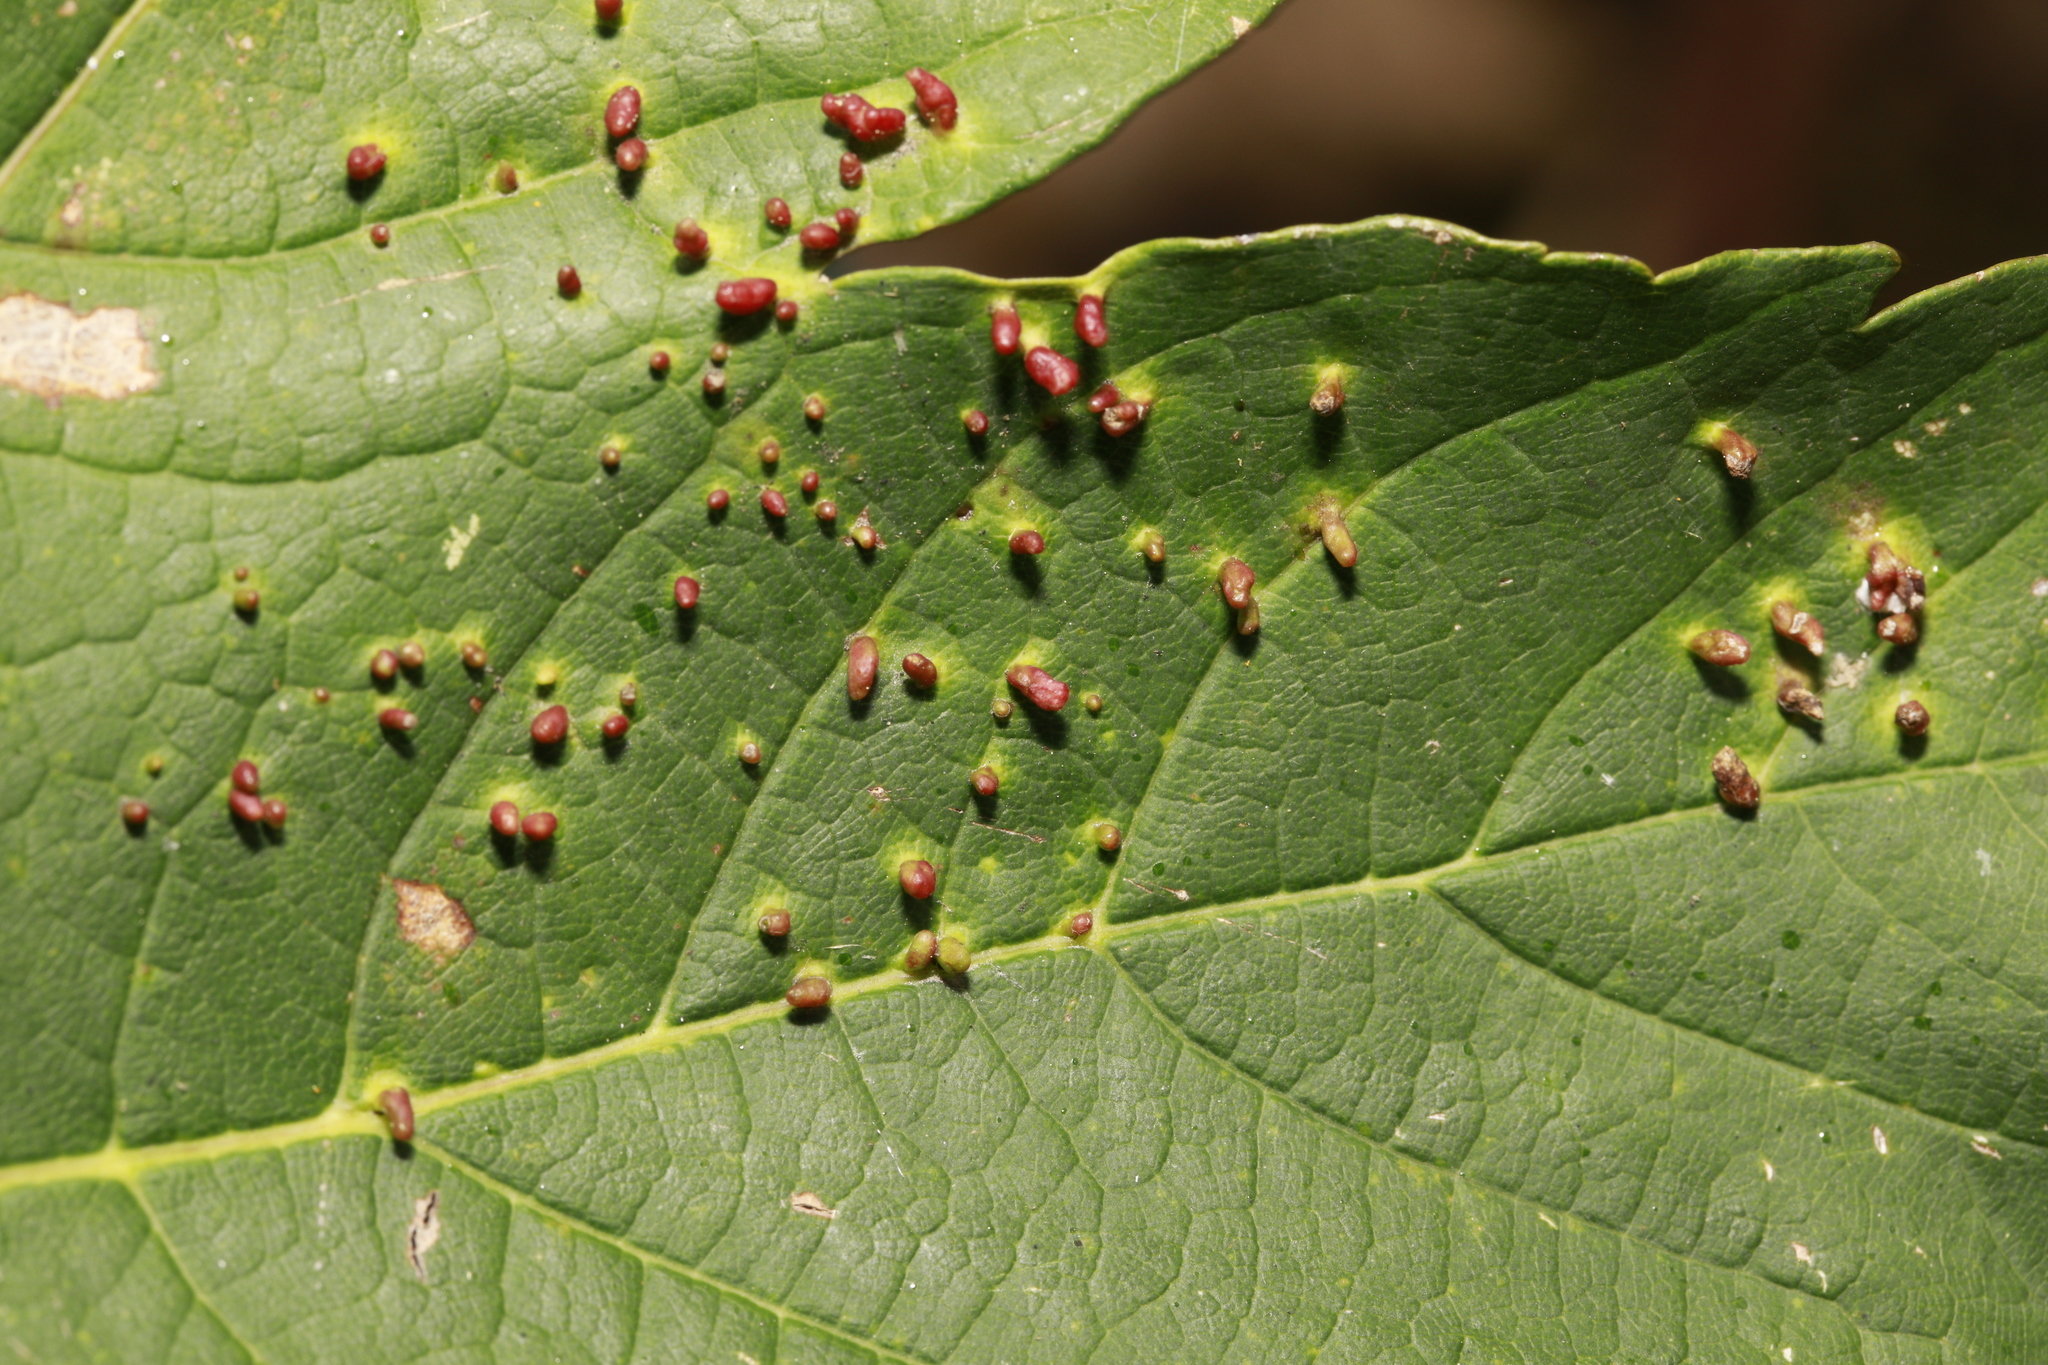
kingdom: Animalia
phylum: Arthropoda
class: Arachnida
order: Trombidiformes
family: Eriophyidae
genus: Aceria
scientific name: Aceria cephaloneus
